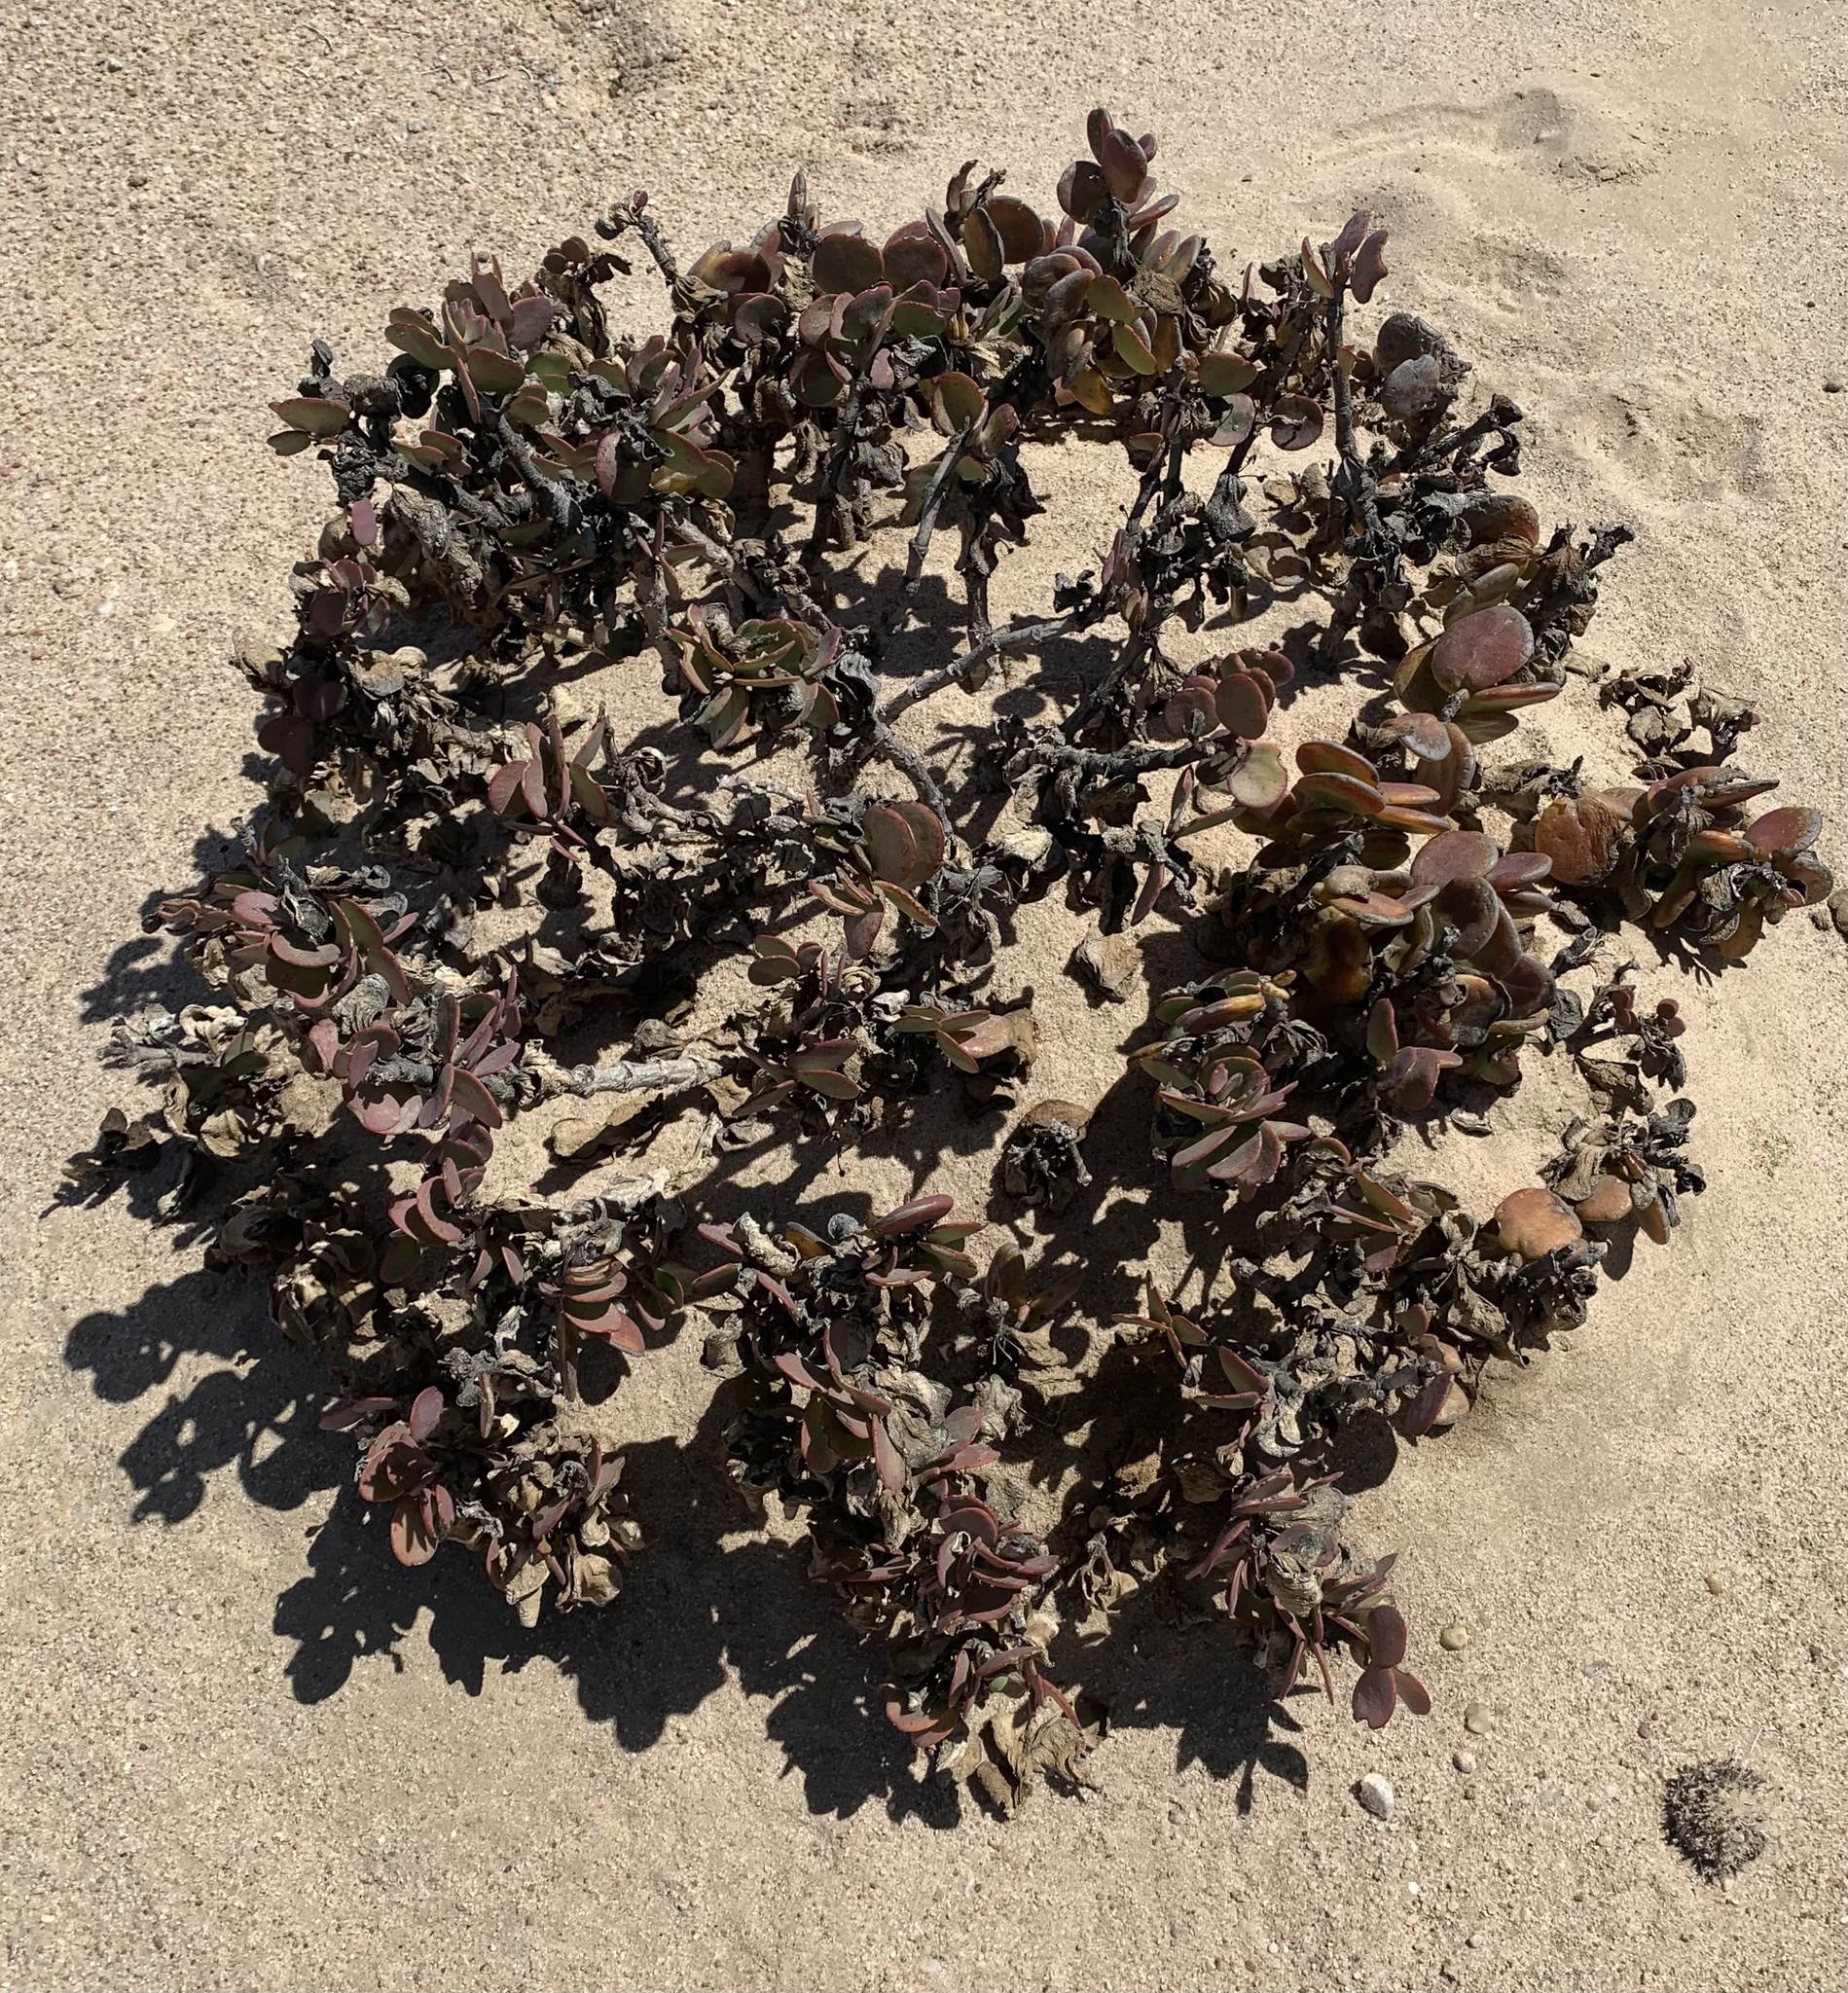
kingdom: Plantae
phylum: Tracheophyta
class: Magnoliopsida
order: Zygophyllales
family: Zygophyllaceae
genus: Tetraena
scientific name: Tetraena stapfii
